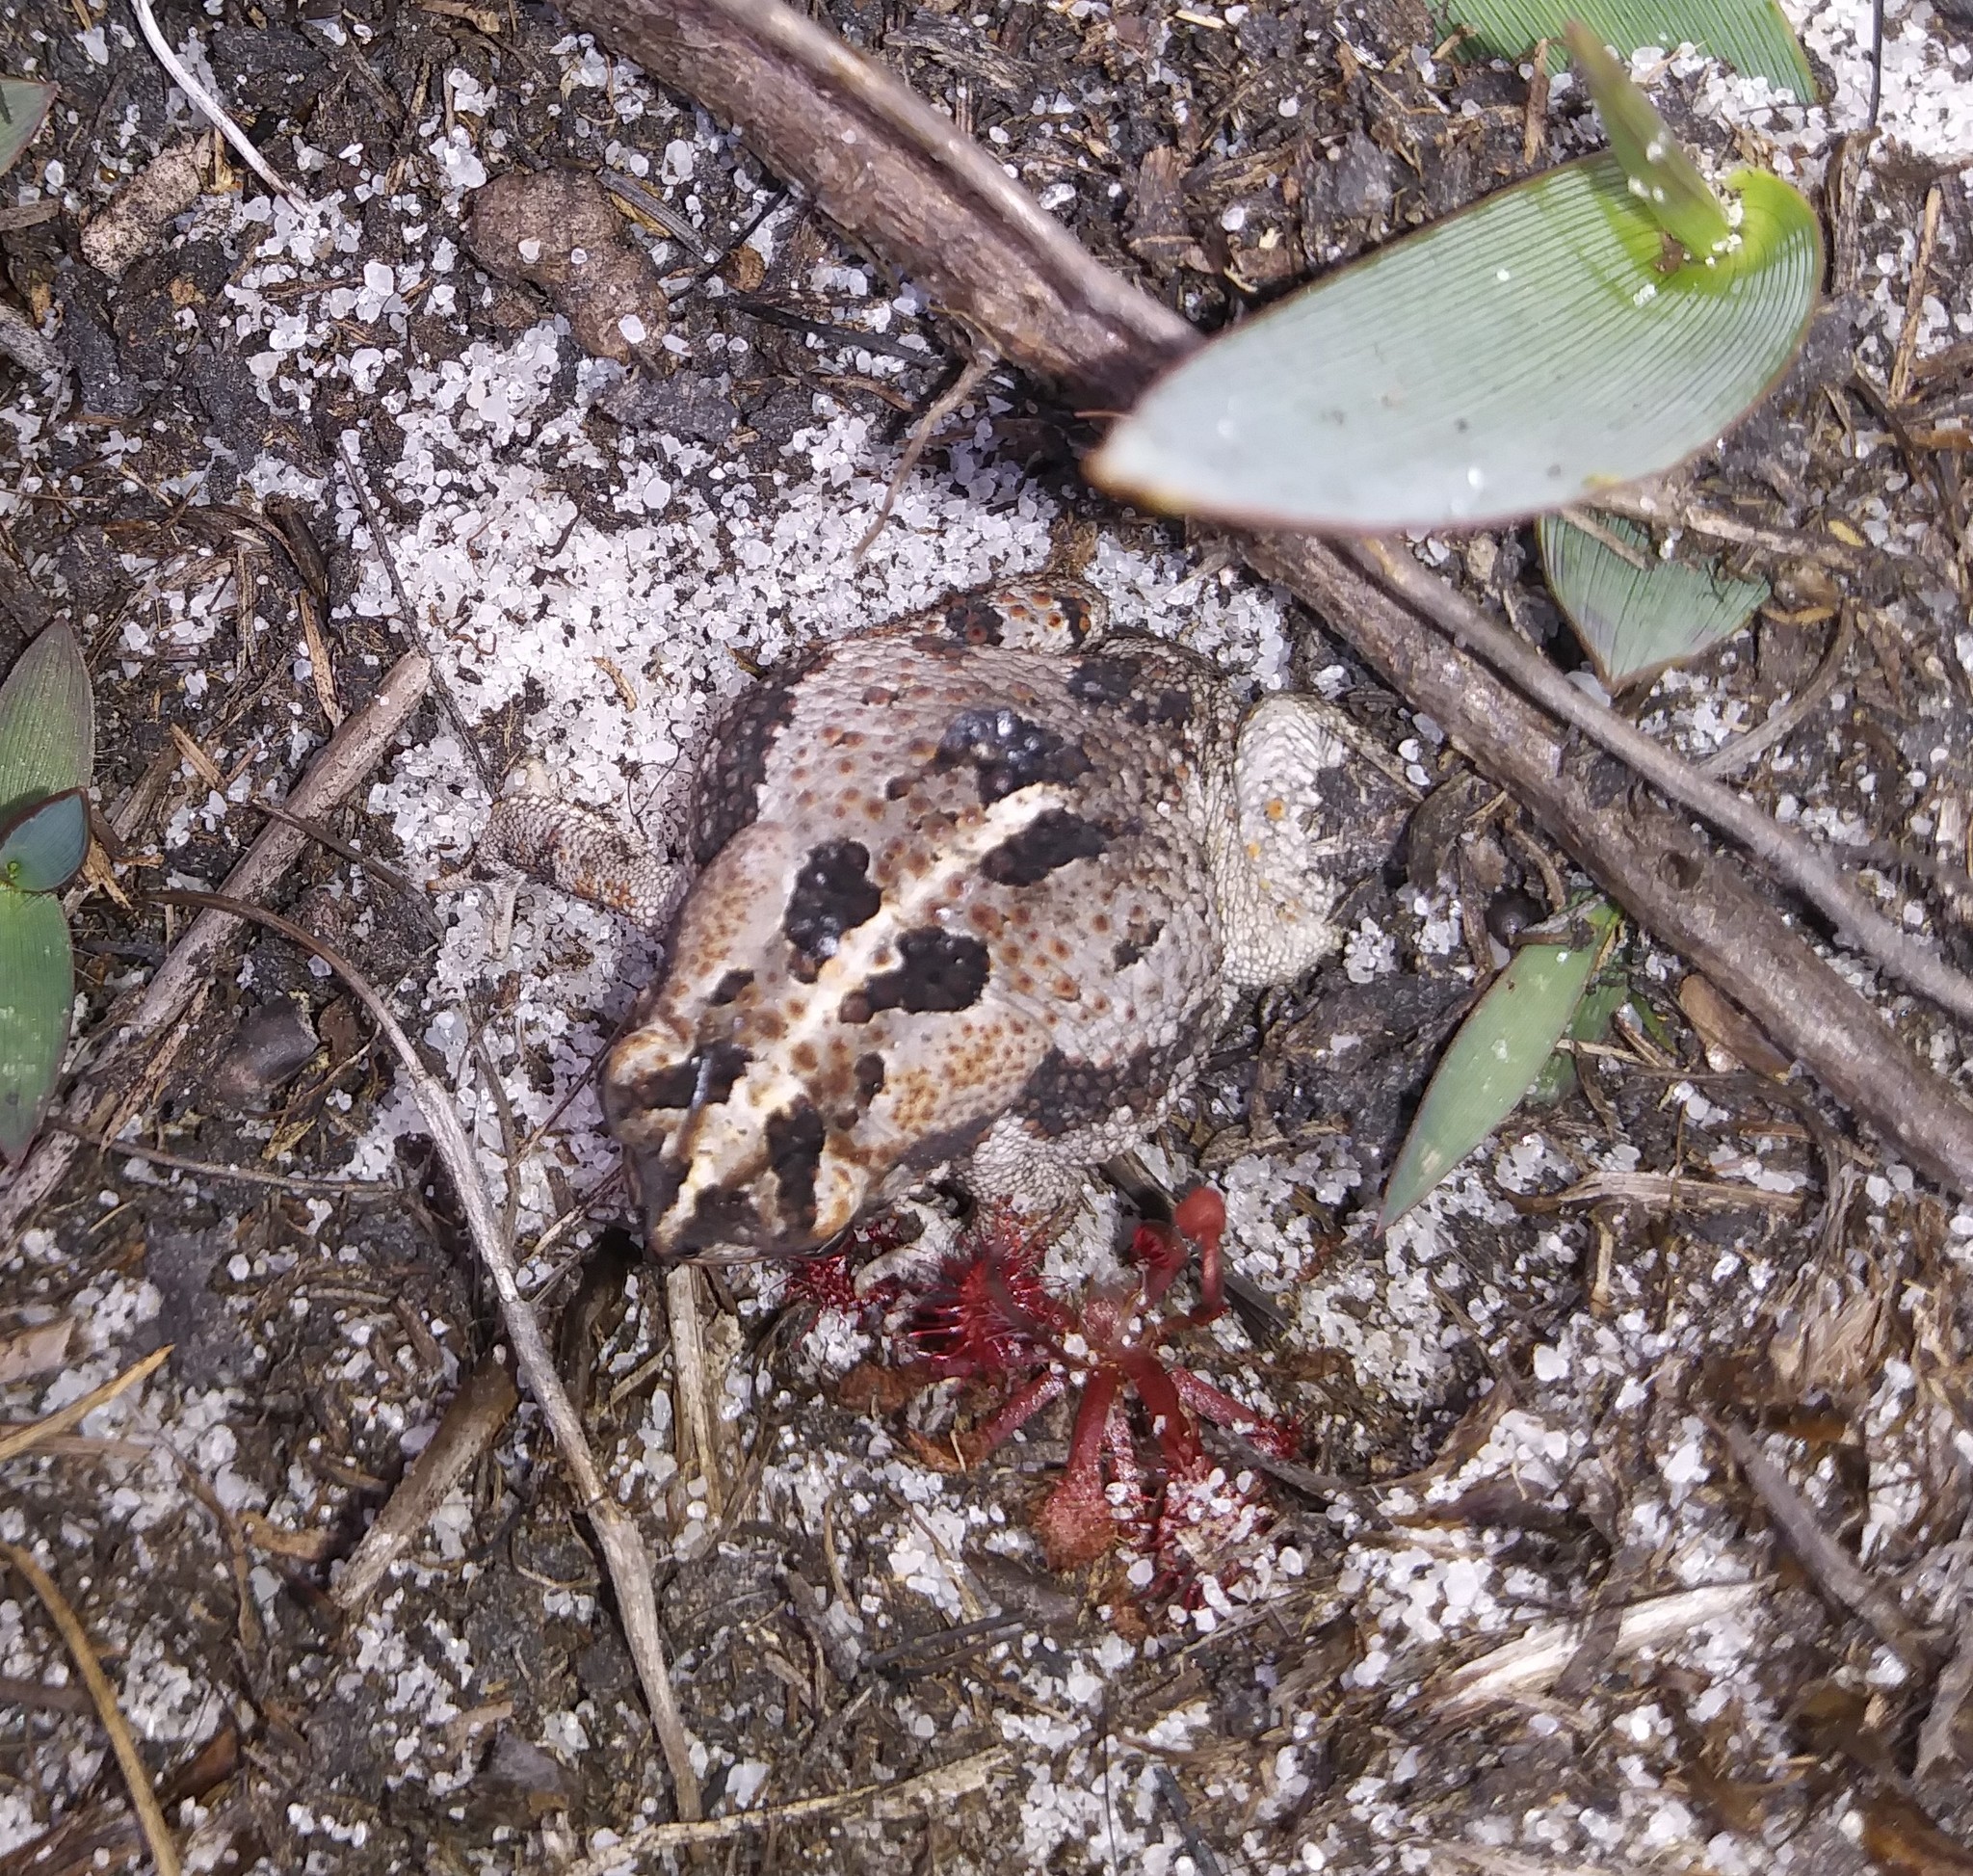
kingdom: Animalia
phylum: Chordata
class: Amphibia
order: Anura
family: Bufonidae
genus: Anaxyrus
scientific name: Anaxyrus quercicus
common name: Oak toad
